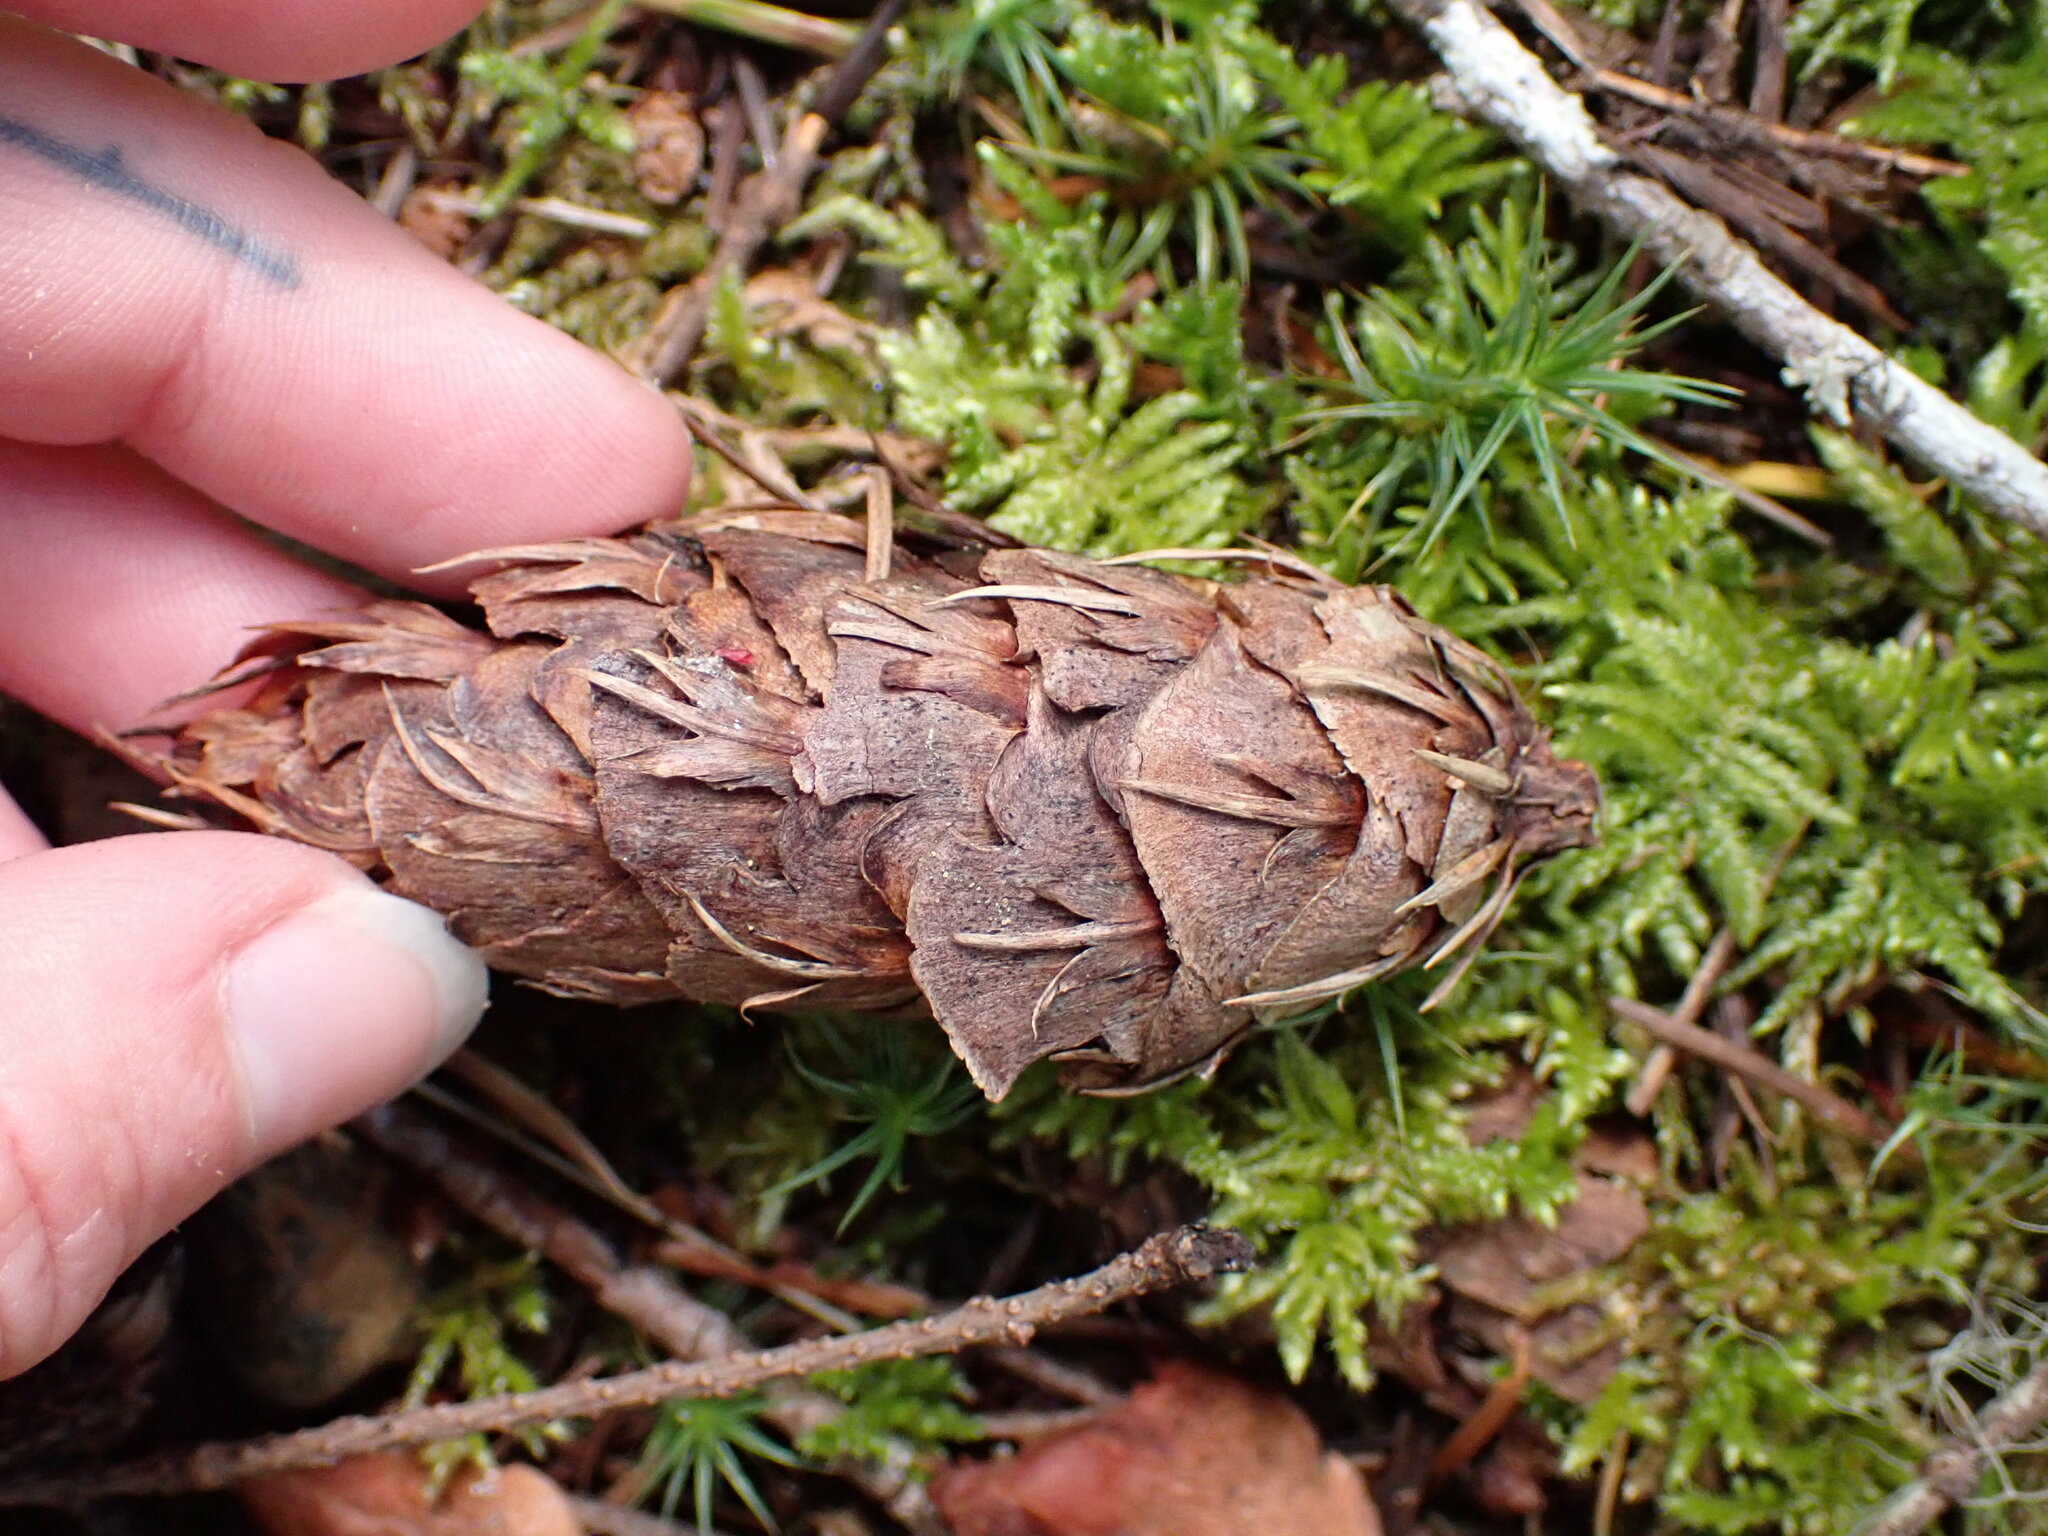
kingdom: Plantae
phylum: Tracheophyta
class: Pinopsida
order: Pinales
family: Pinaceae
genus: Pseudotsuga
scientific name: Pseudotsuga menziesii
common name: Douglas fir
